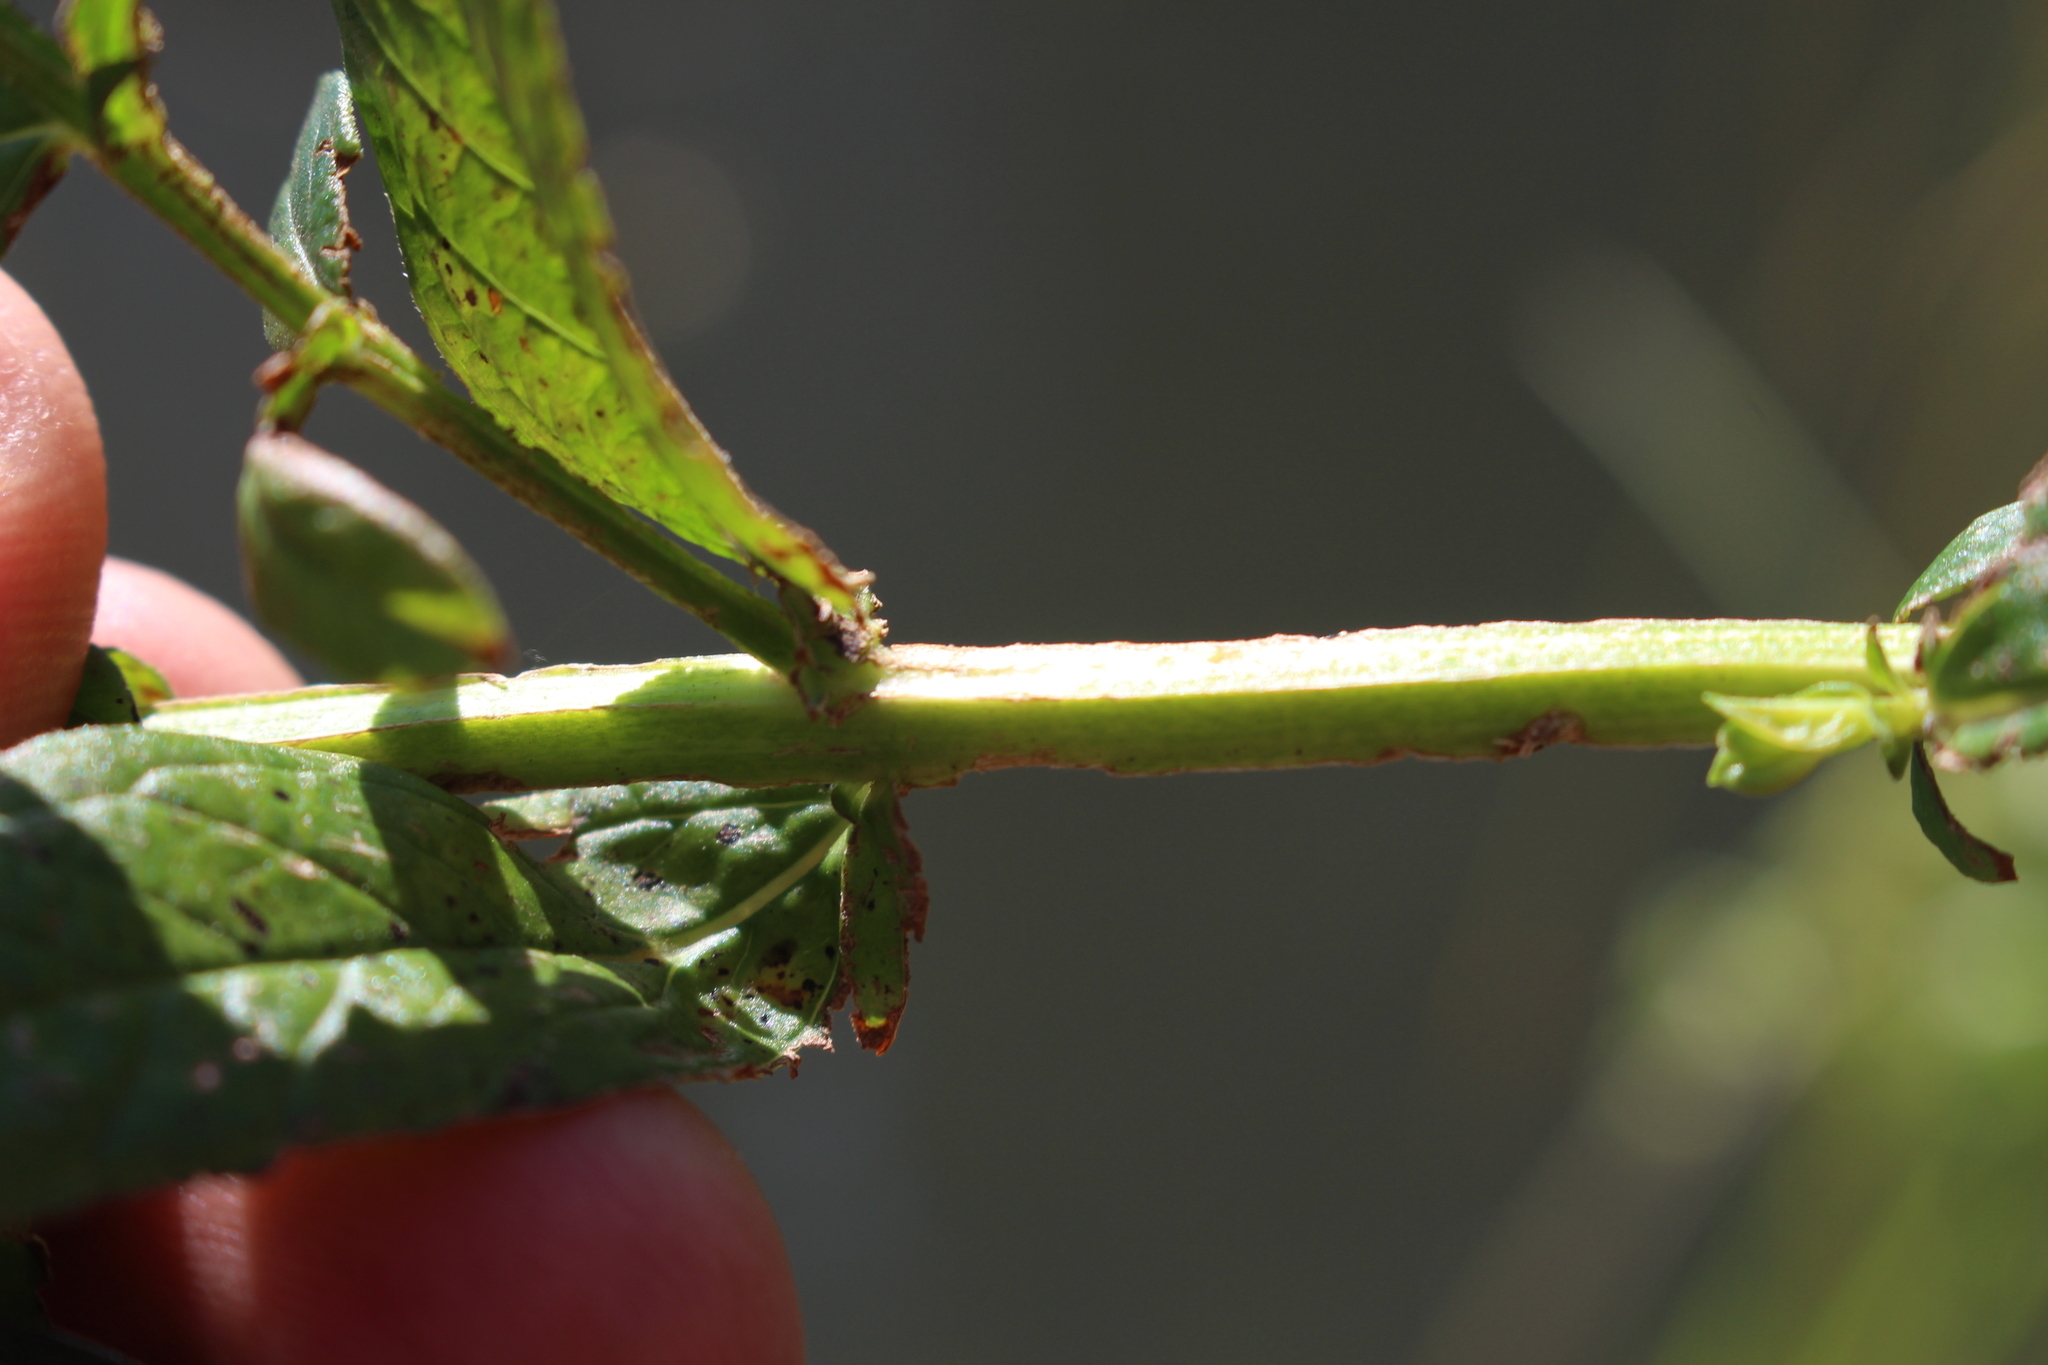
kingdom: Plantae
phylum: Tracheophyta
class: Magnoliopsida
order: Myrtales
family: Lythraceae
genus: Lythrum
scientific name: Lythrum salicaria
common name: Purple loosestrife
